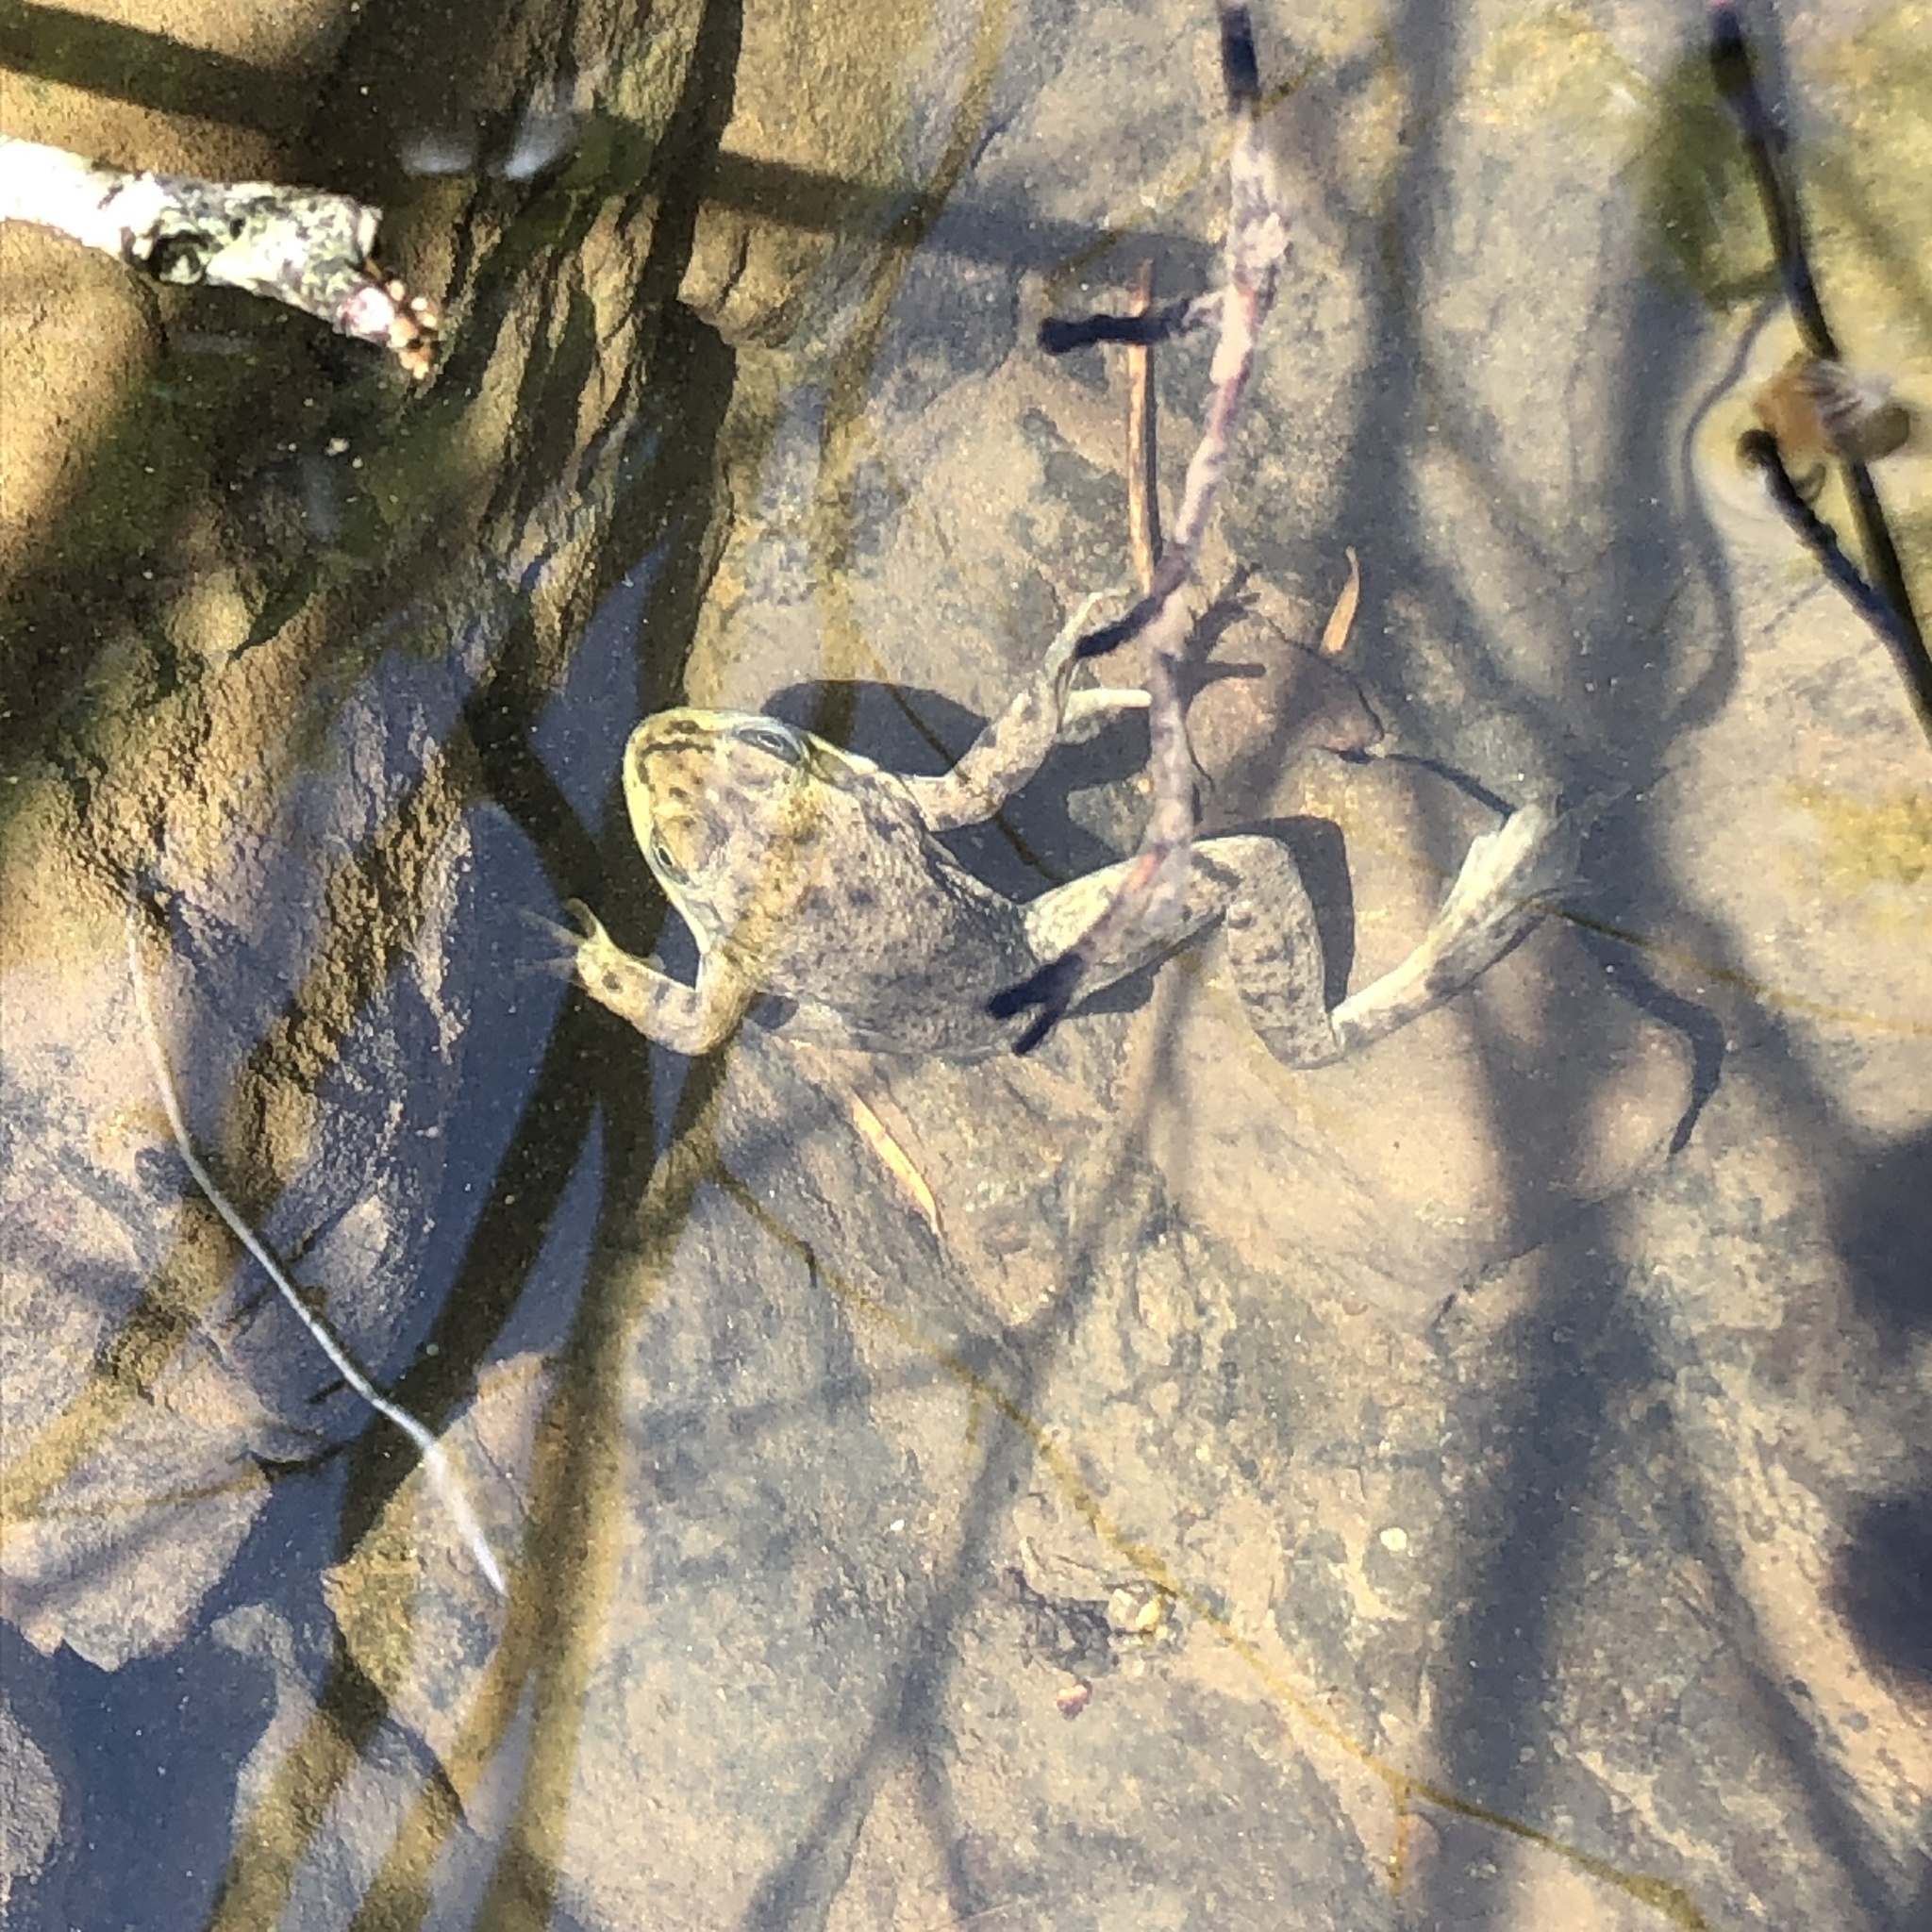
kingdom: Animalia
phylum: Chordata
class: Amphibia
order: Anura
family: Ranidae
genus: Lithobates
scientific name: Lithobates catesbeianus
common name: American bullfrog
